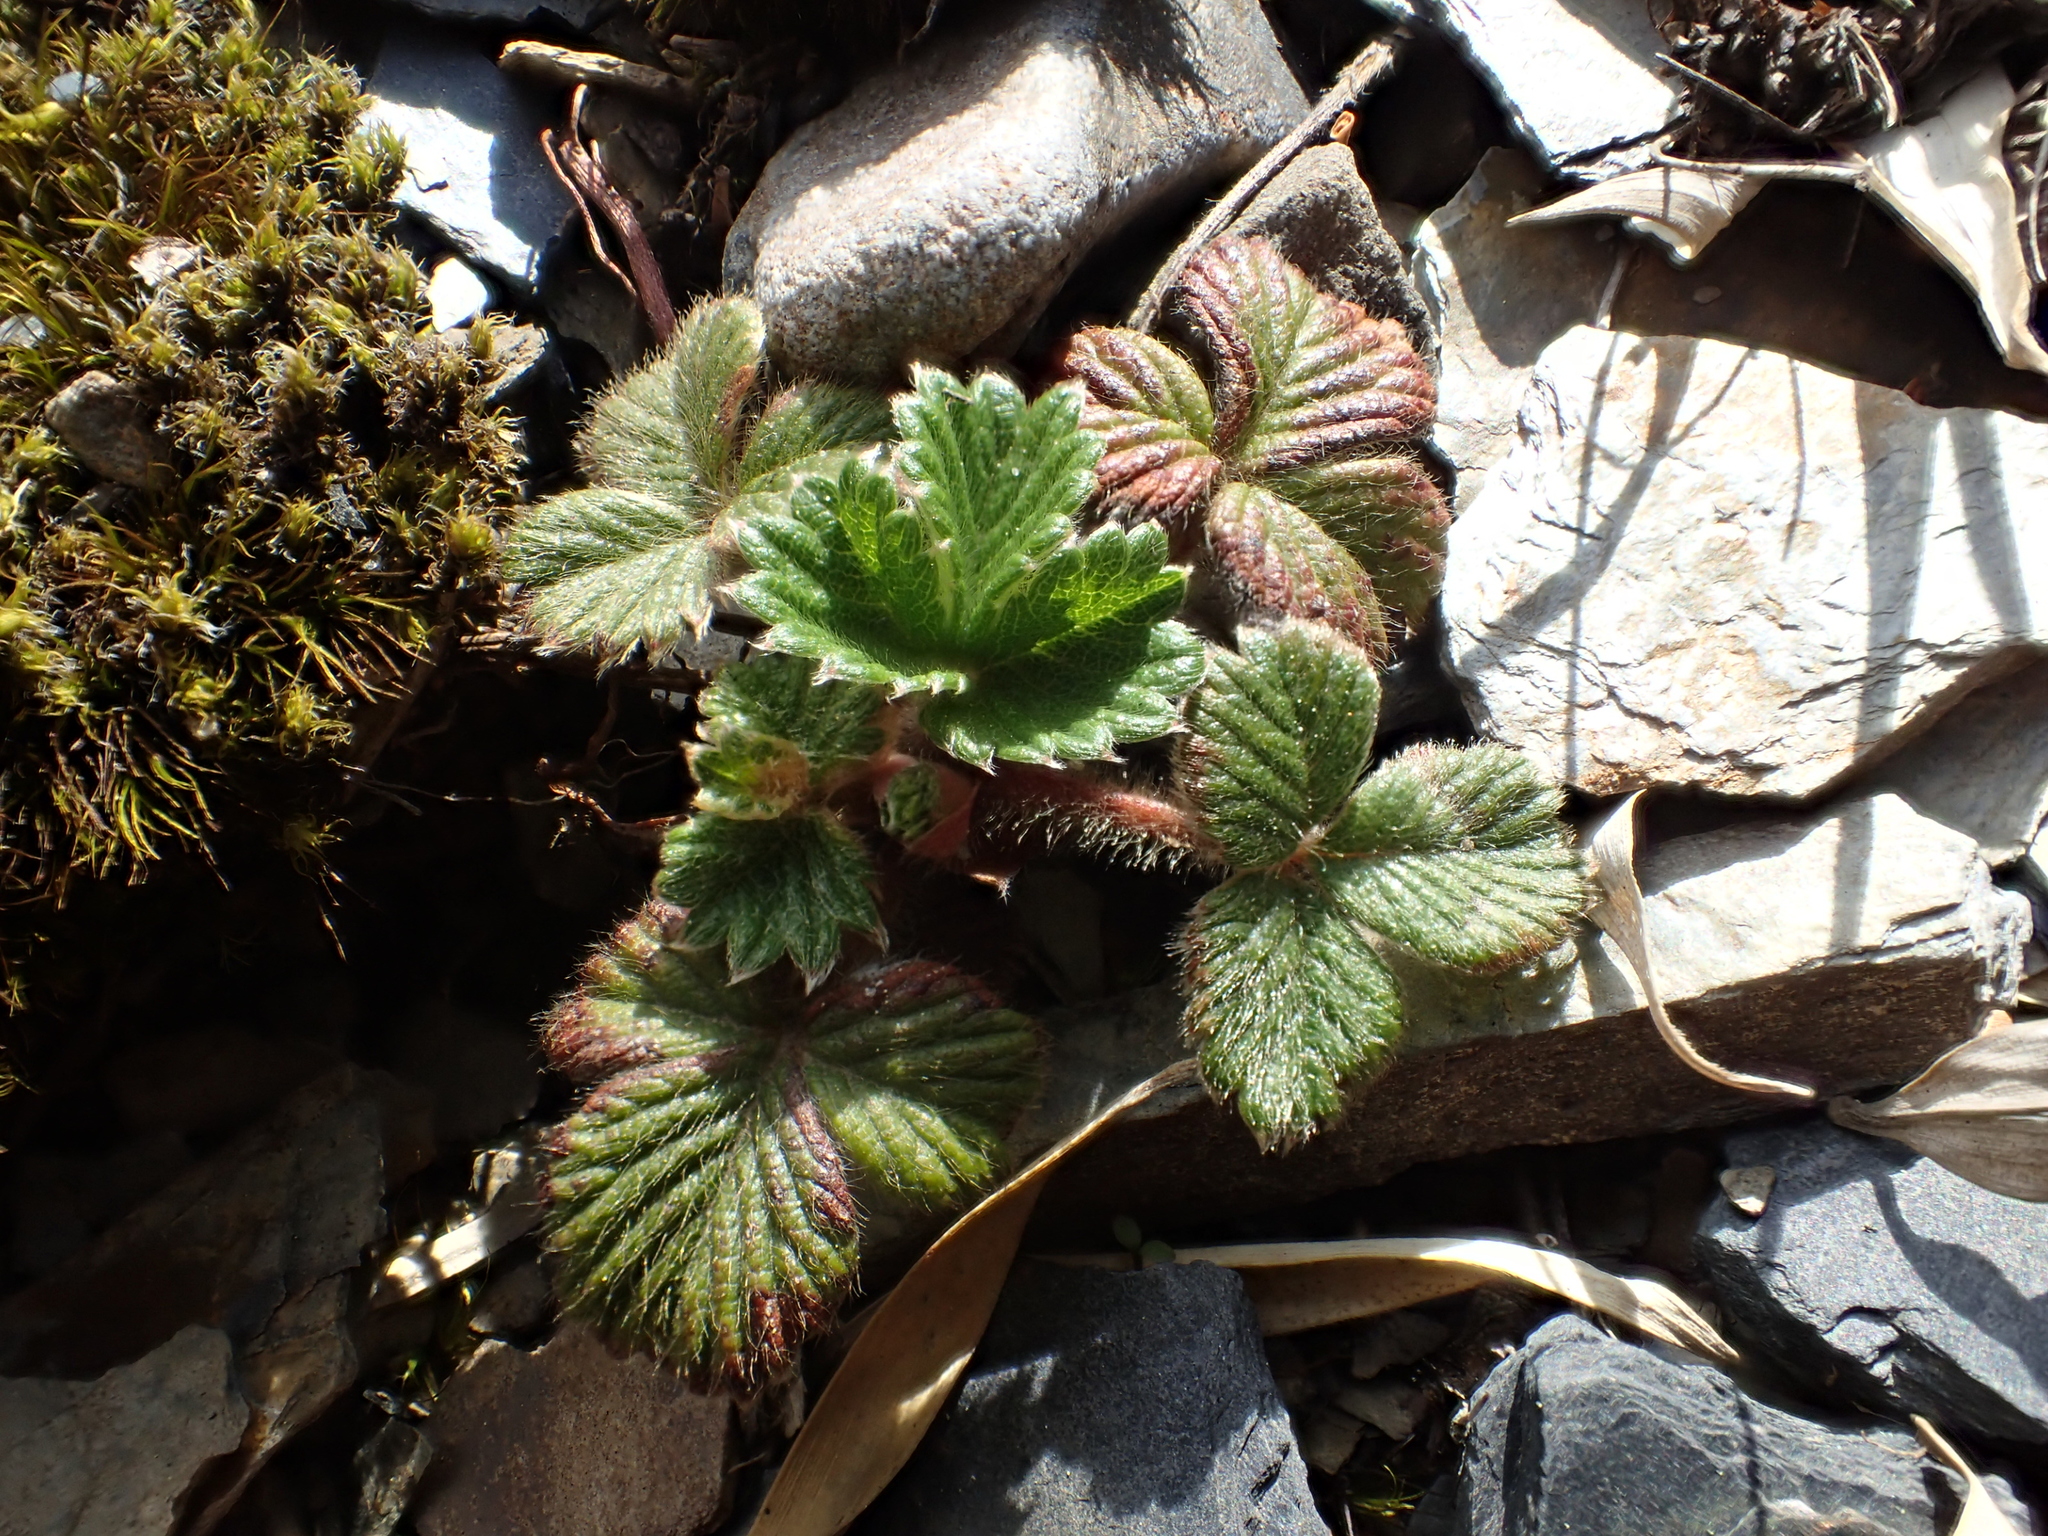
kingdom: Plantae
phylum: Tracheophyta
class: Magnoliopsida
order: Rosales
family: Rosaceae
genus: Fragaria
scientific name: Fragaria nilgerrensis
